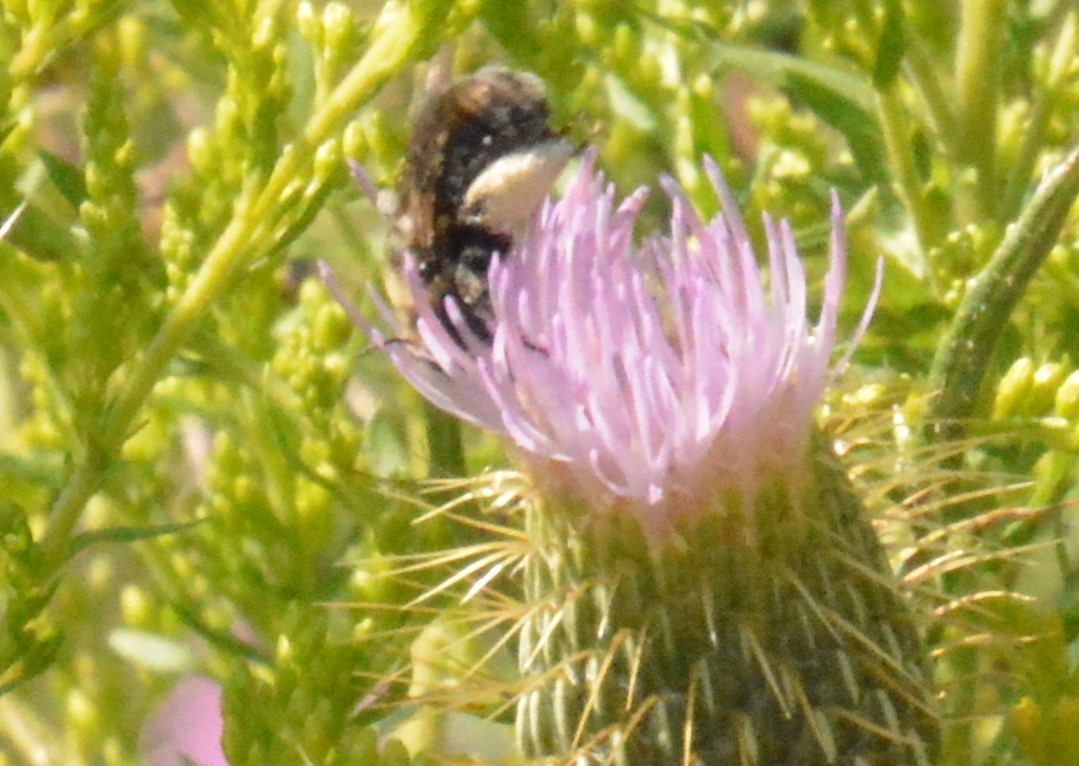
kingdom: Animalia
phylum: Arthropoda
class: Insecta
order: Hymenoptera
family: Apidae
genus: Melissodes
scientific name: Melissodes desponsus
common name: Thistle long-horned bee
